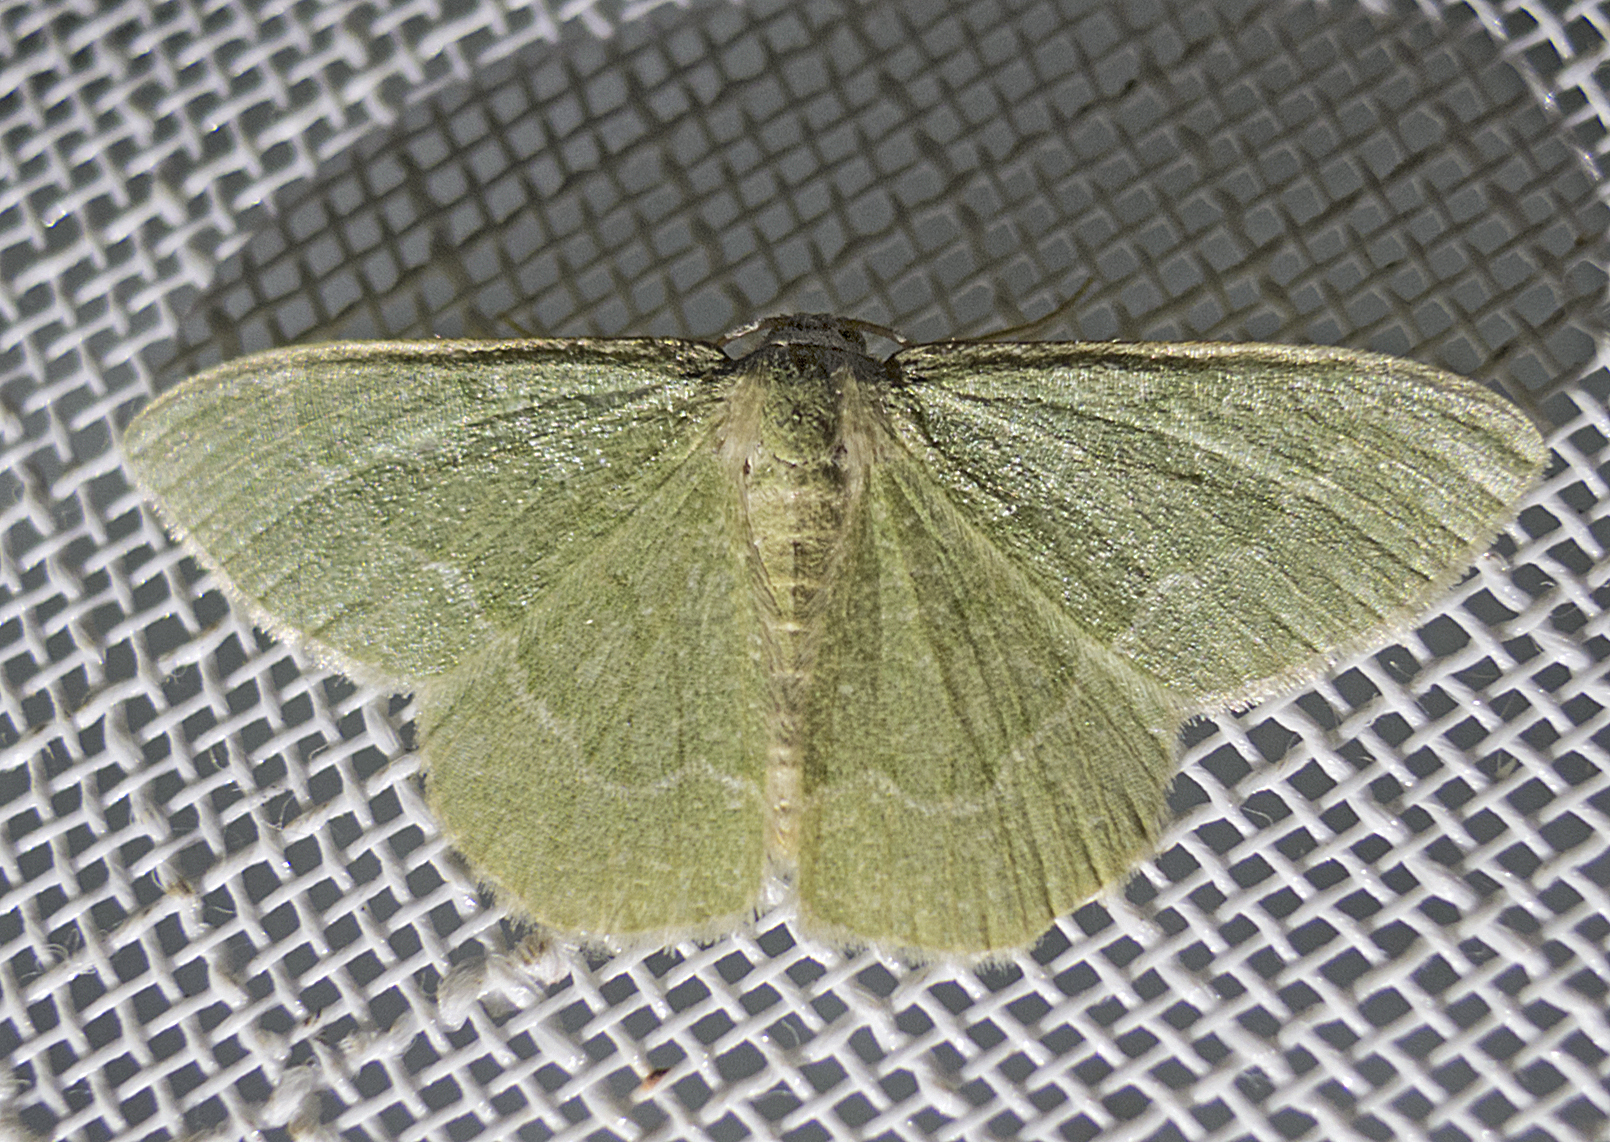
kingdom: Animalia
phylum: Arthropoda
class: Insecta
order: Lepidoptera
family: Geometridae
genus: Chlorissa
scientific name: Chlorissa etruscaria
